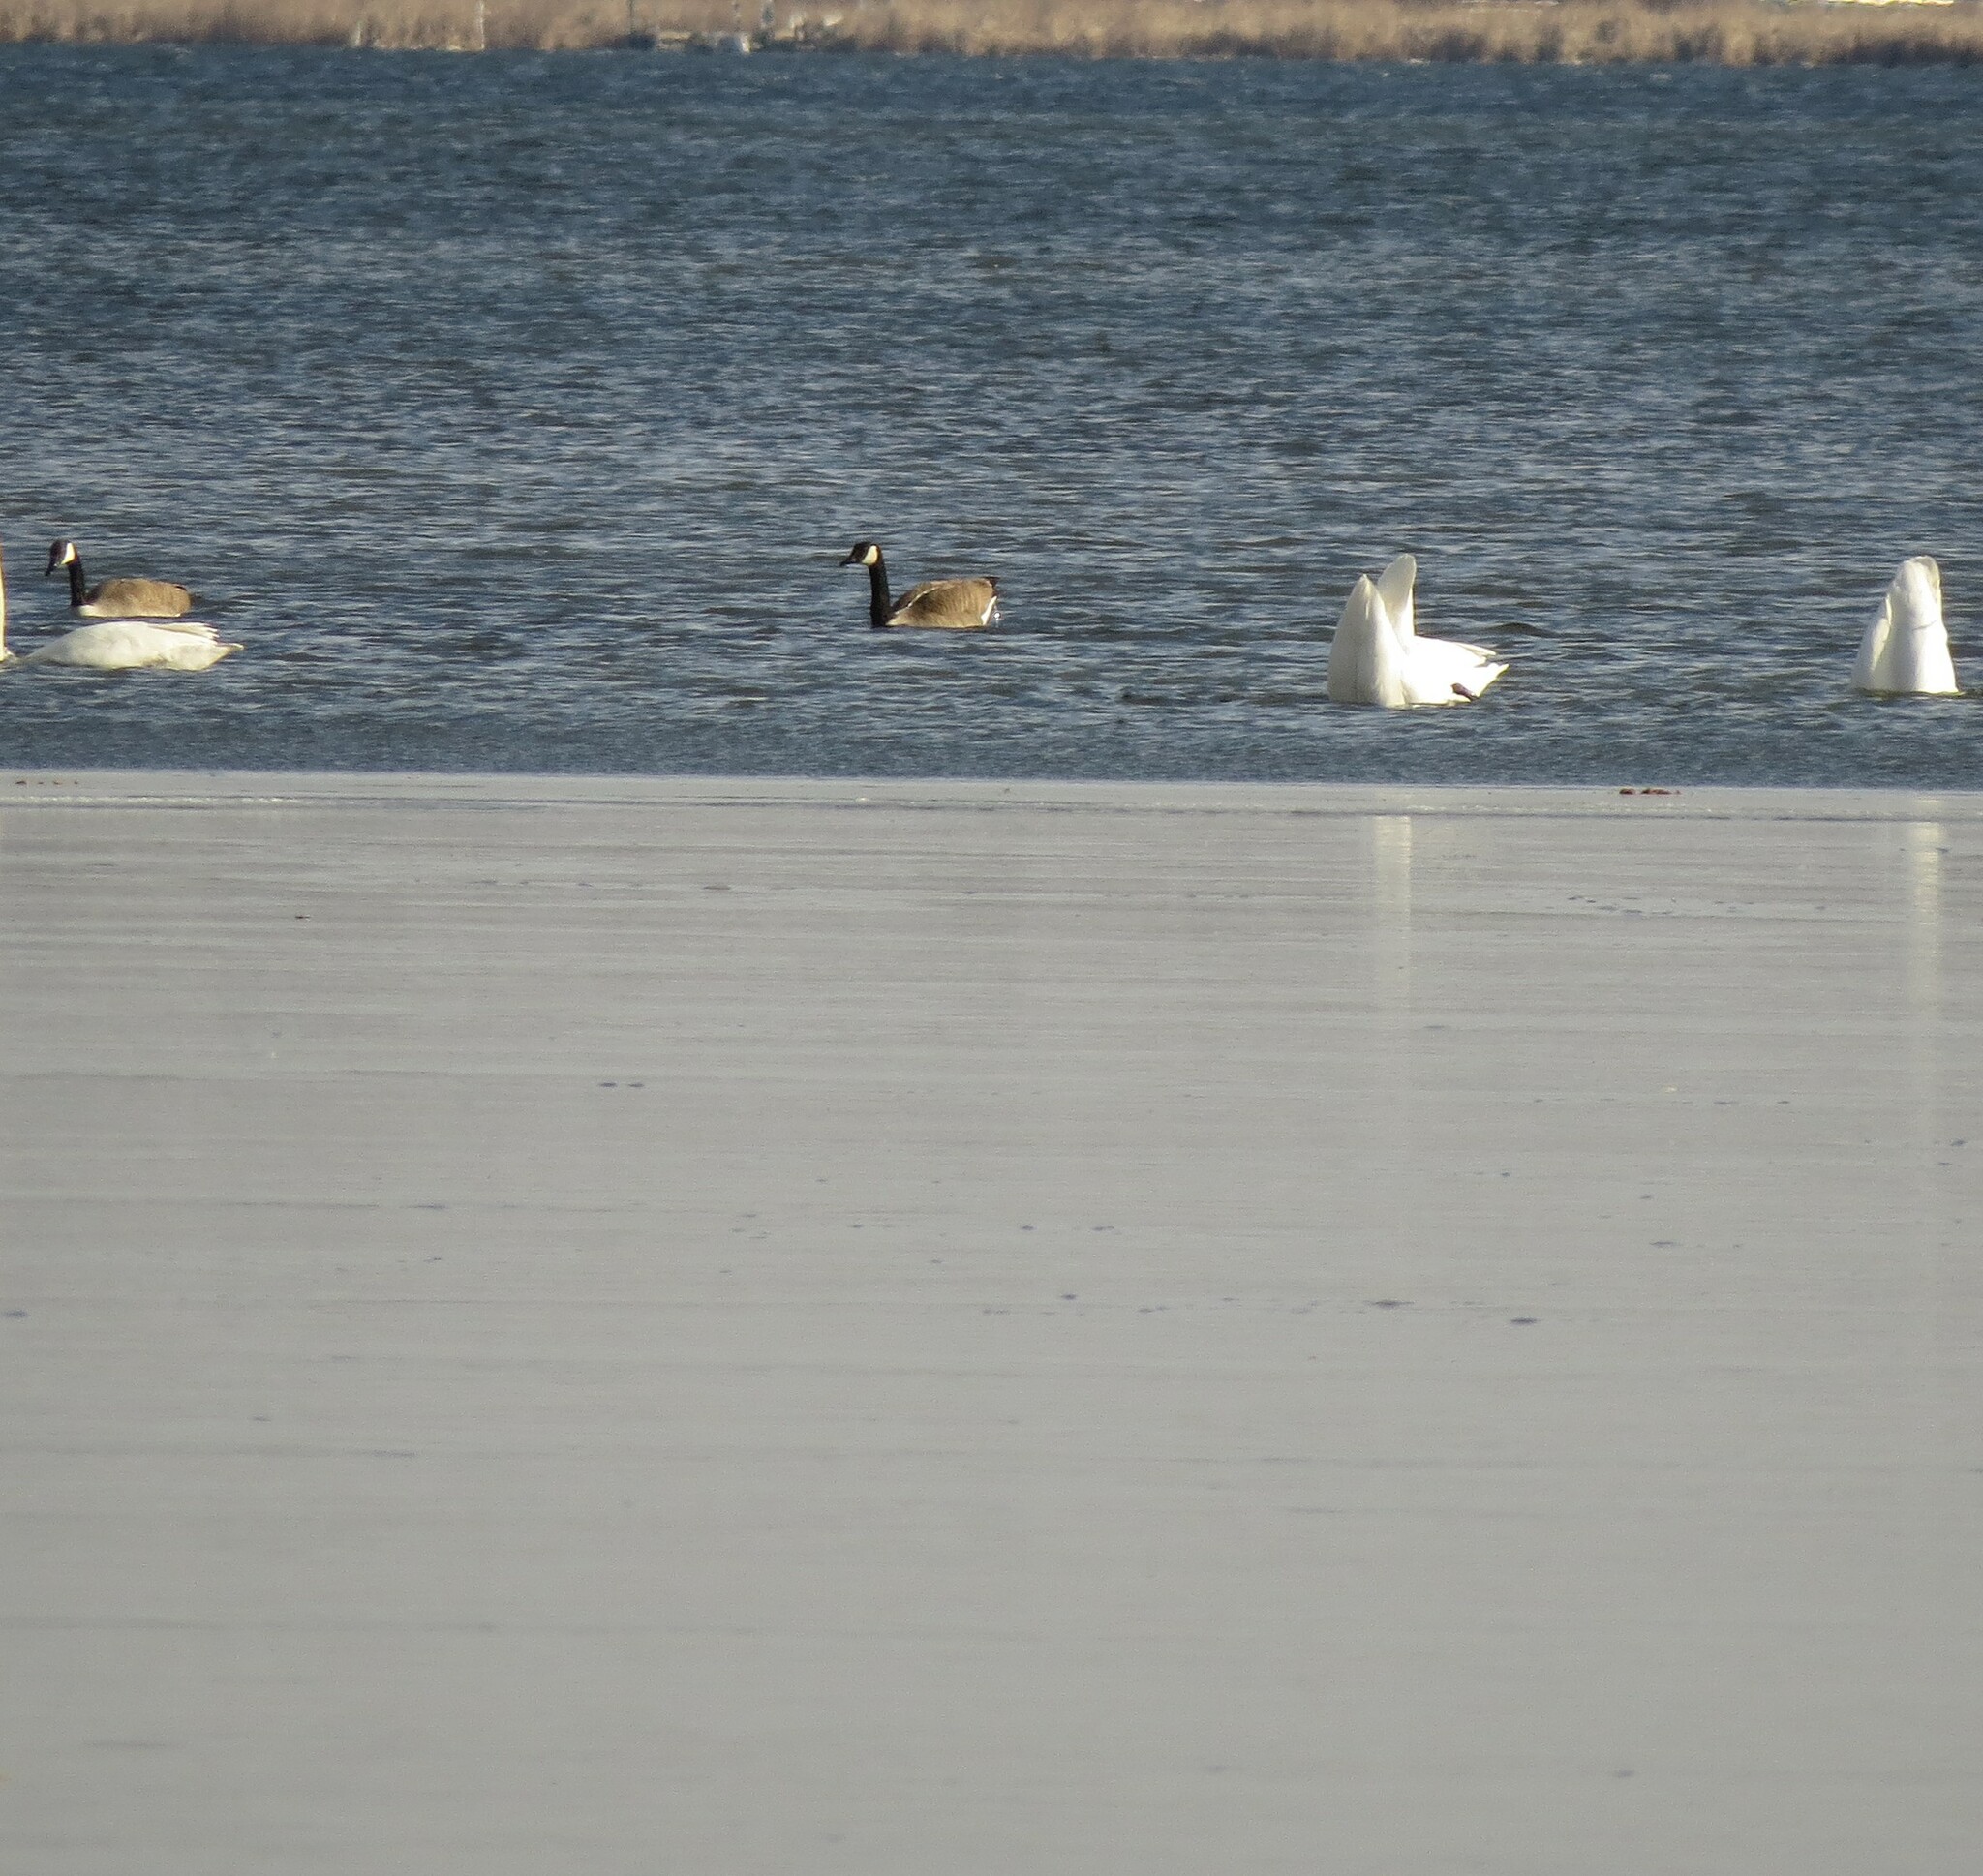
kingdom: Animalia
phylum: Chordata
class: Aves
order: Anseriformes
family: Anatidae
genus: Branta
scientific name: Branta canadensis
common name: Canada goose
